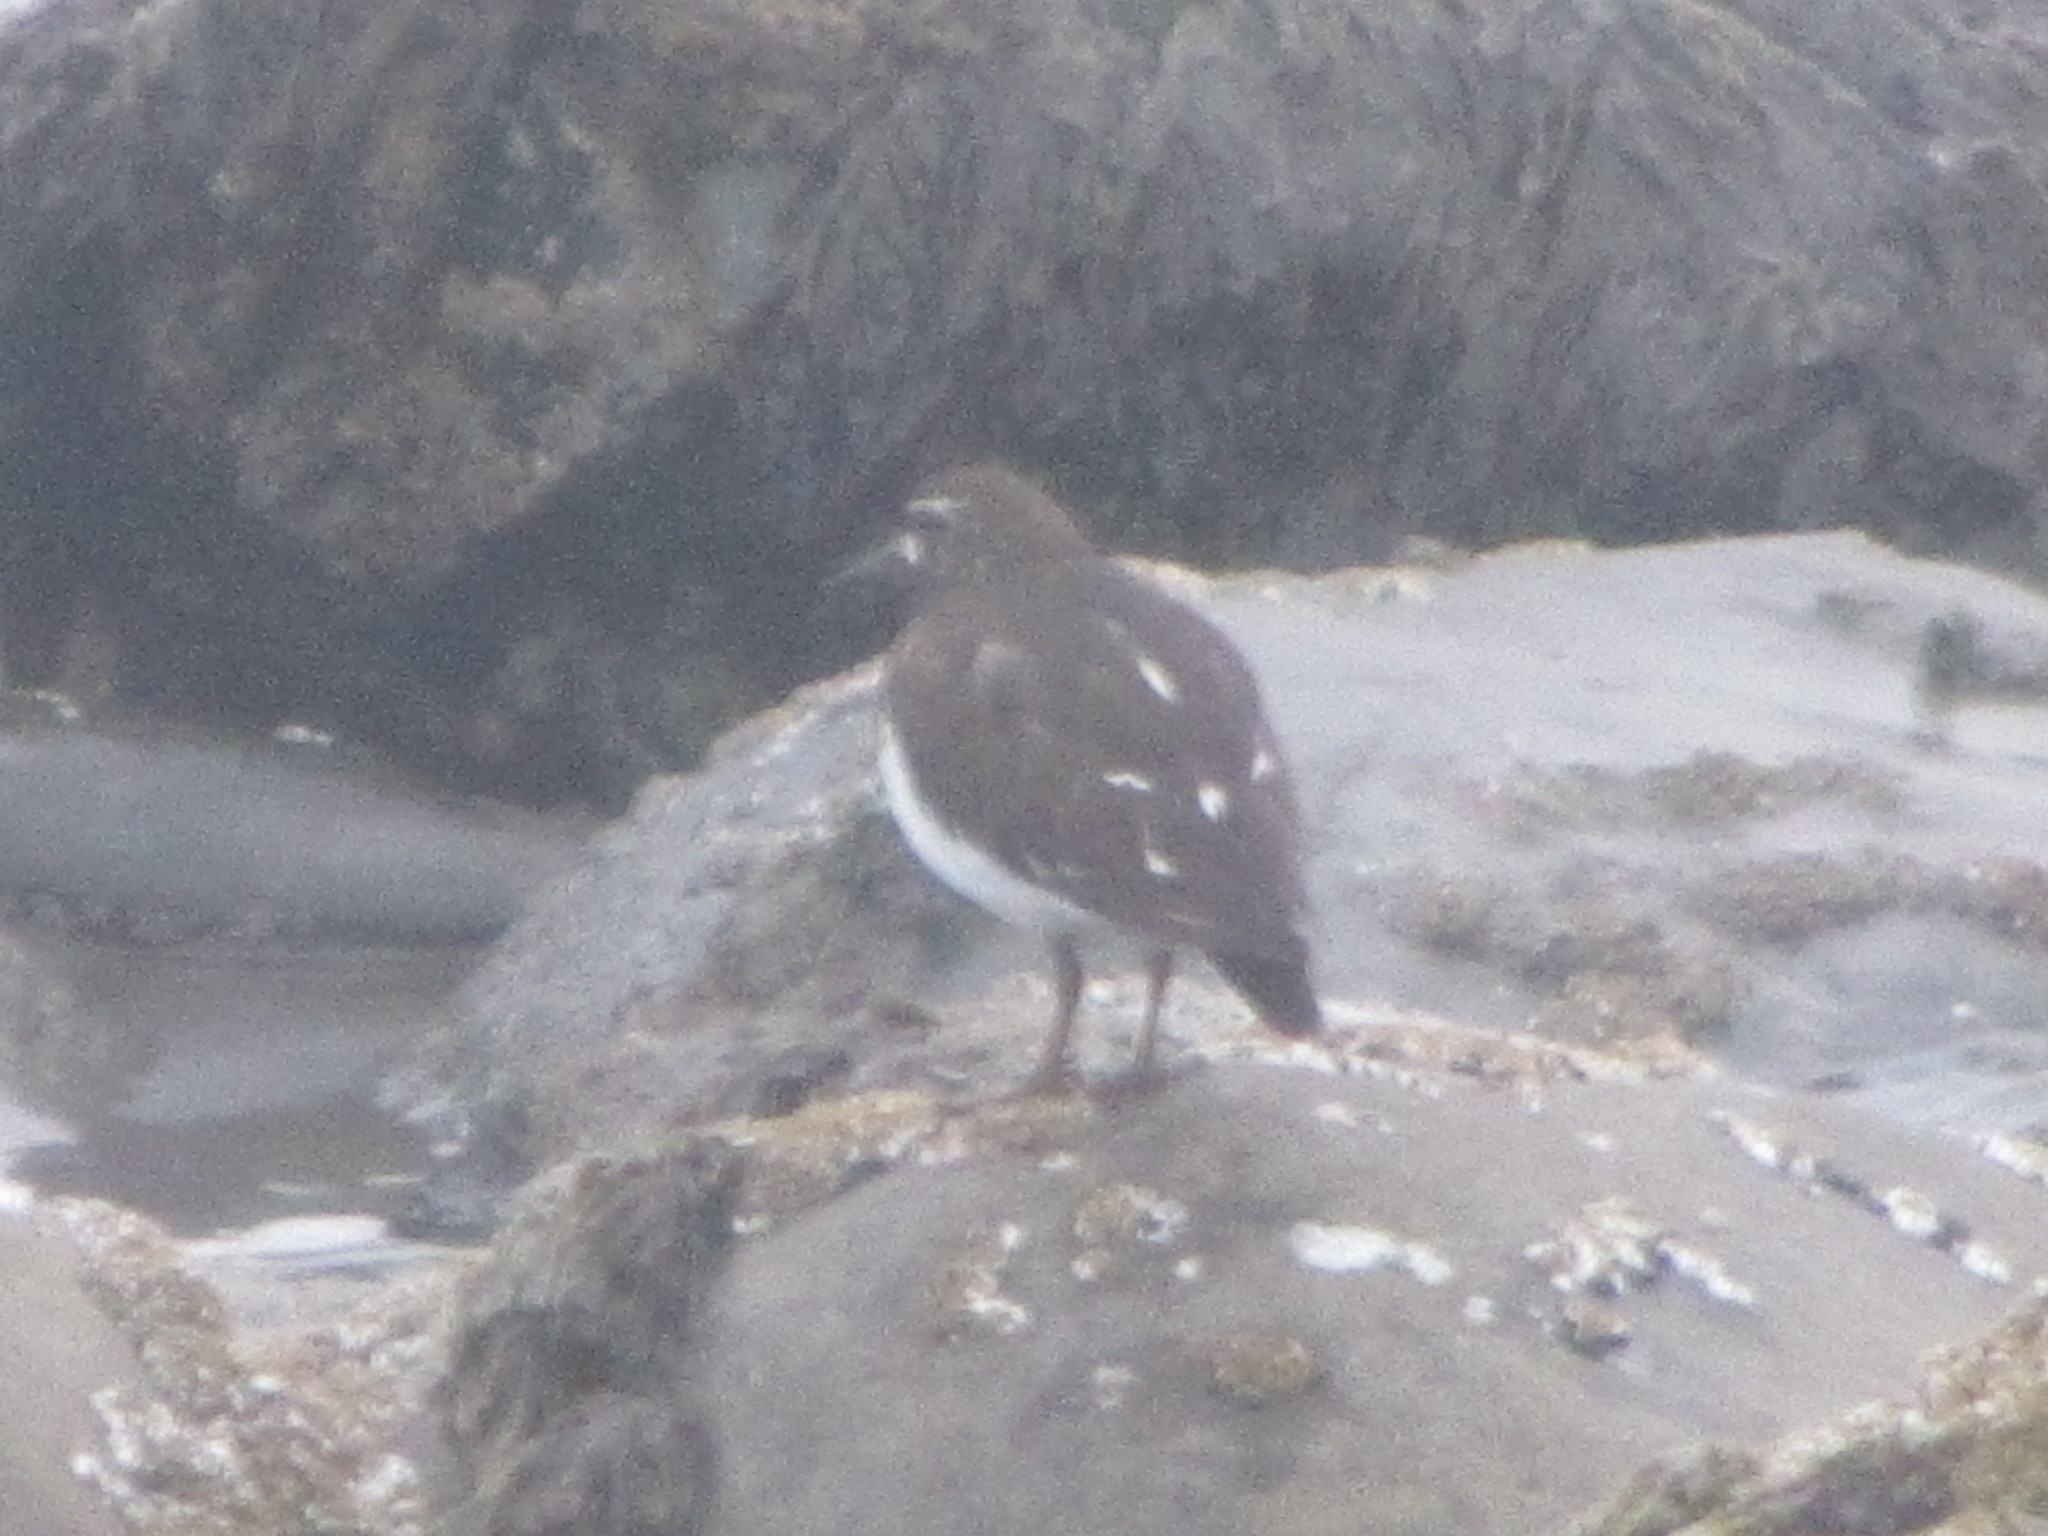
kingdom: Animalia
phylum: Chordata
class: Aves
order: Charadriiformes
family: Scolopacidae
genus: Arenaria
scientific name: Arenaria melanocephala
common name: Black turnstone
